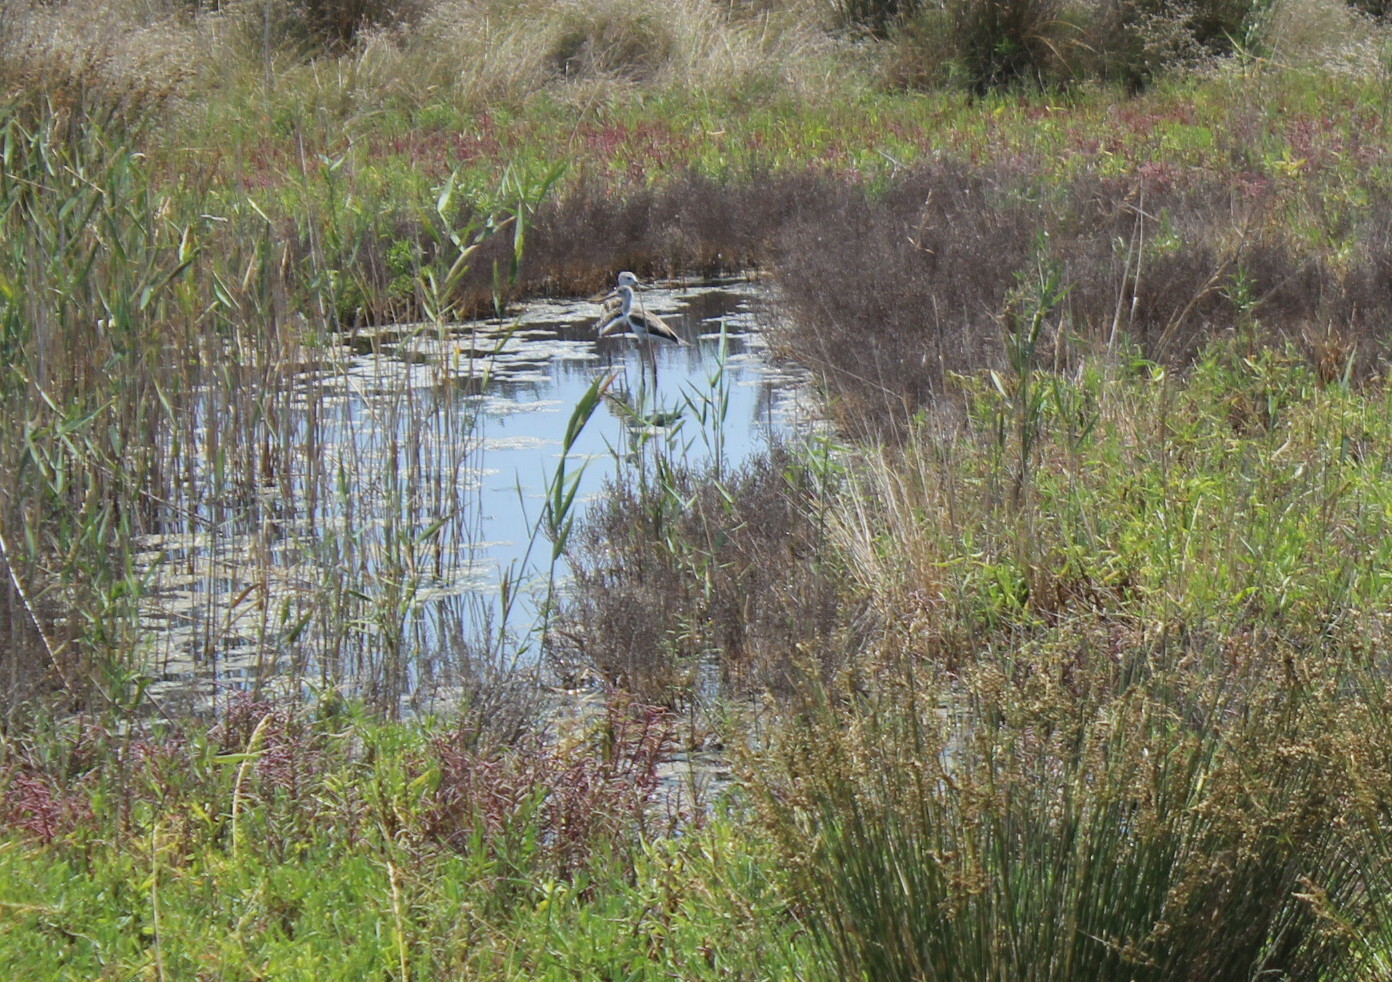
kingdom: Animalia
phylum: Chordata
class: Aves
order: Charadriiformes
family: Recurvirostridae
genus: Himantopus
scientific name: Himantopus himantopus
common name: Black-winged stilt
